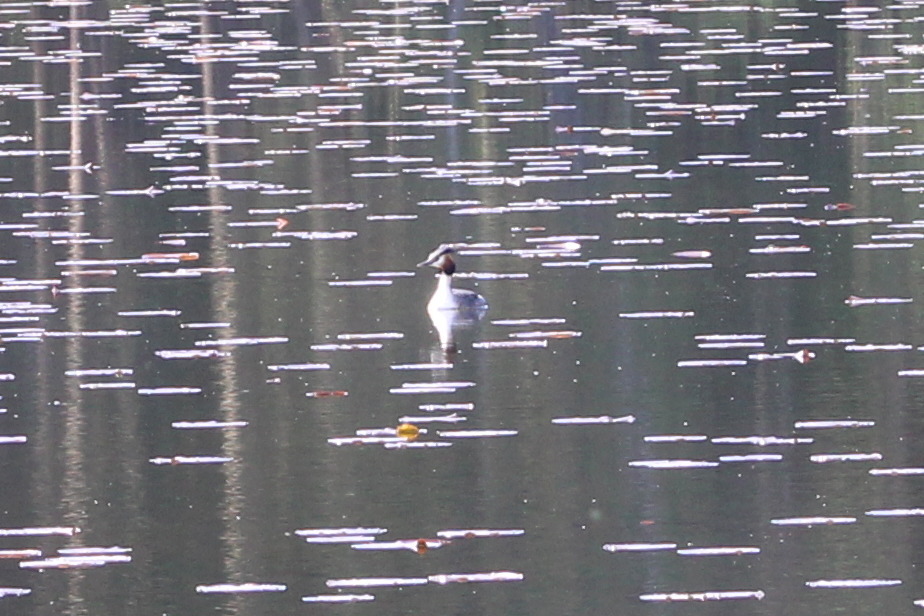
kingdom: Animalia
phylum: Chordata
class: Aves
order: Podicipediformes
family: Podicipedidae
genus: Podiceps
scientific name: Podiceps cristatus
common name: Great crested grebe
